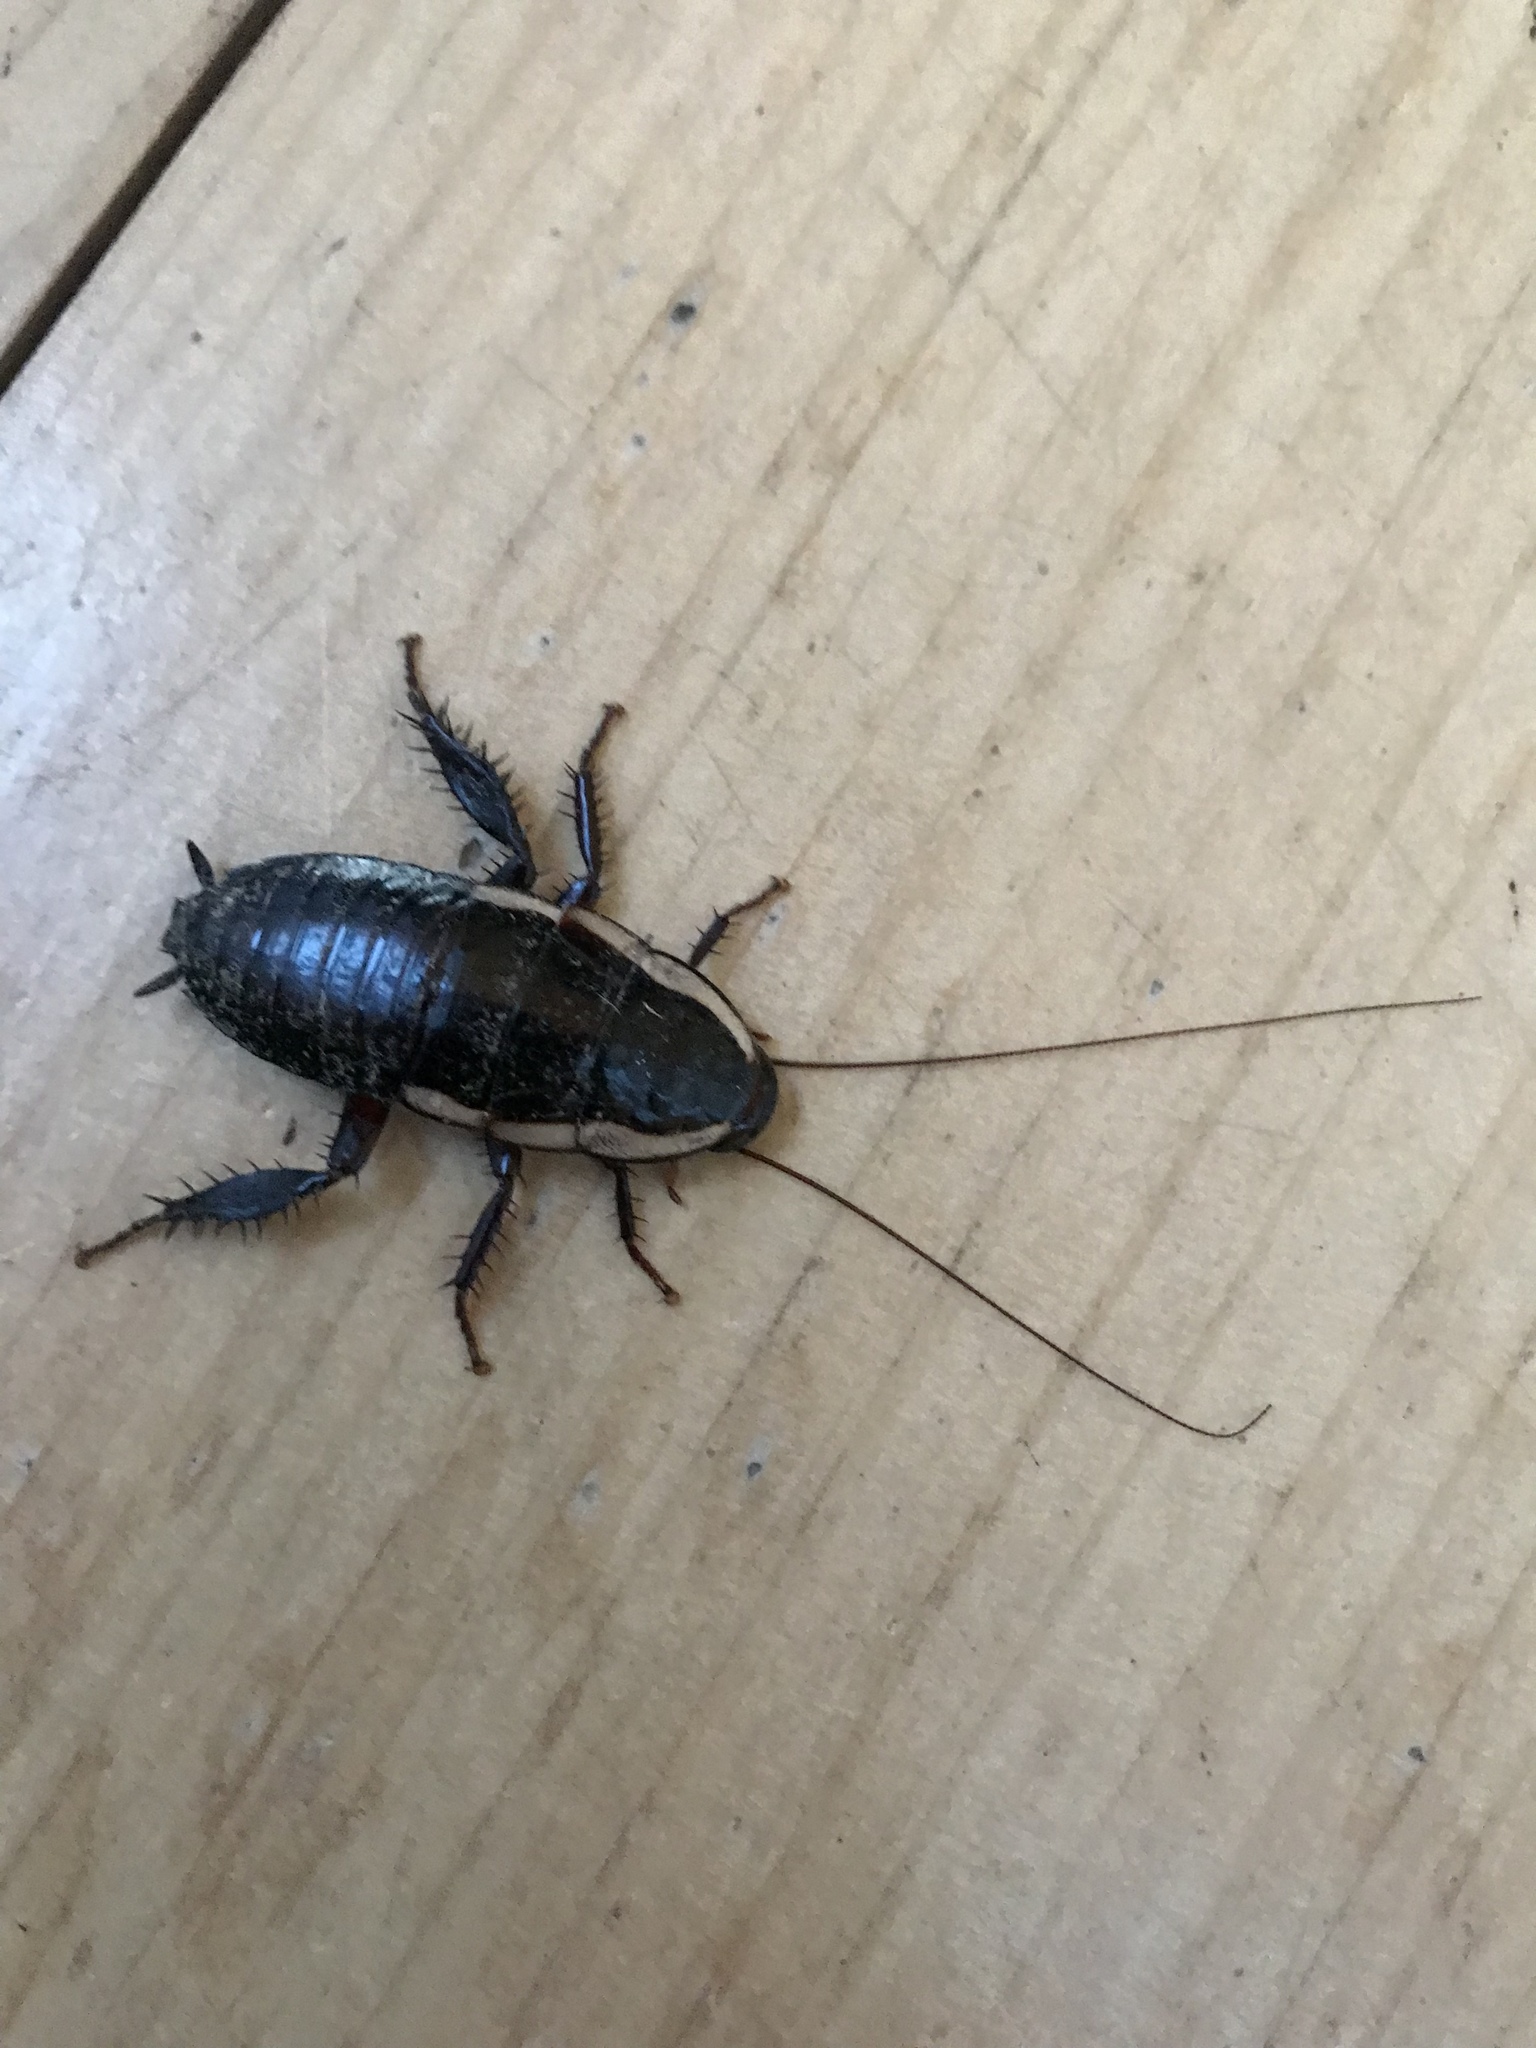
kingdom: Animalia
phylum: Arthropoda
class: Insecta
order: Blattodea
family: Blattidae
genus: Drymaplaneta
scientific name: Drymaplaneta semivitta
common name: Gisborne cockroach
